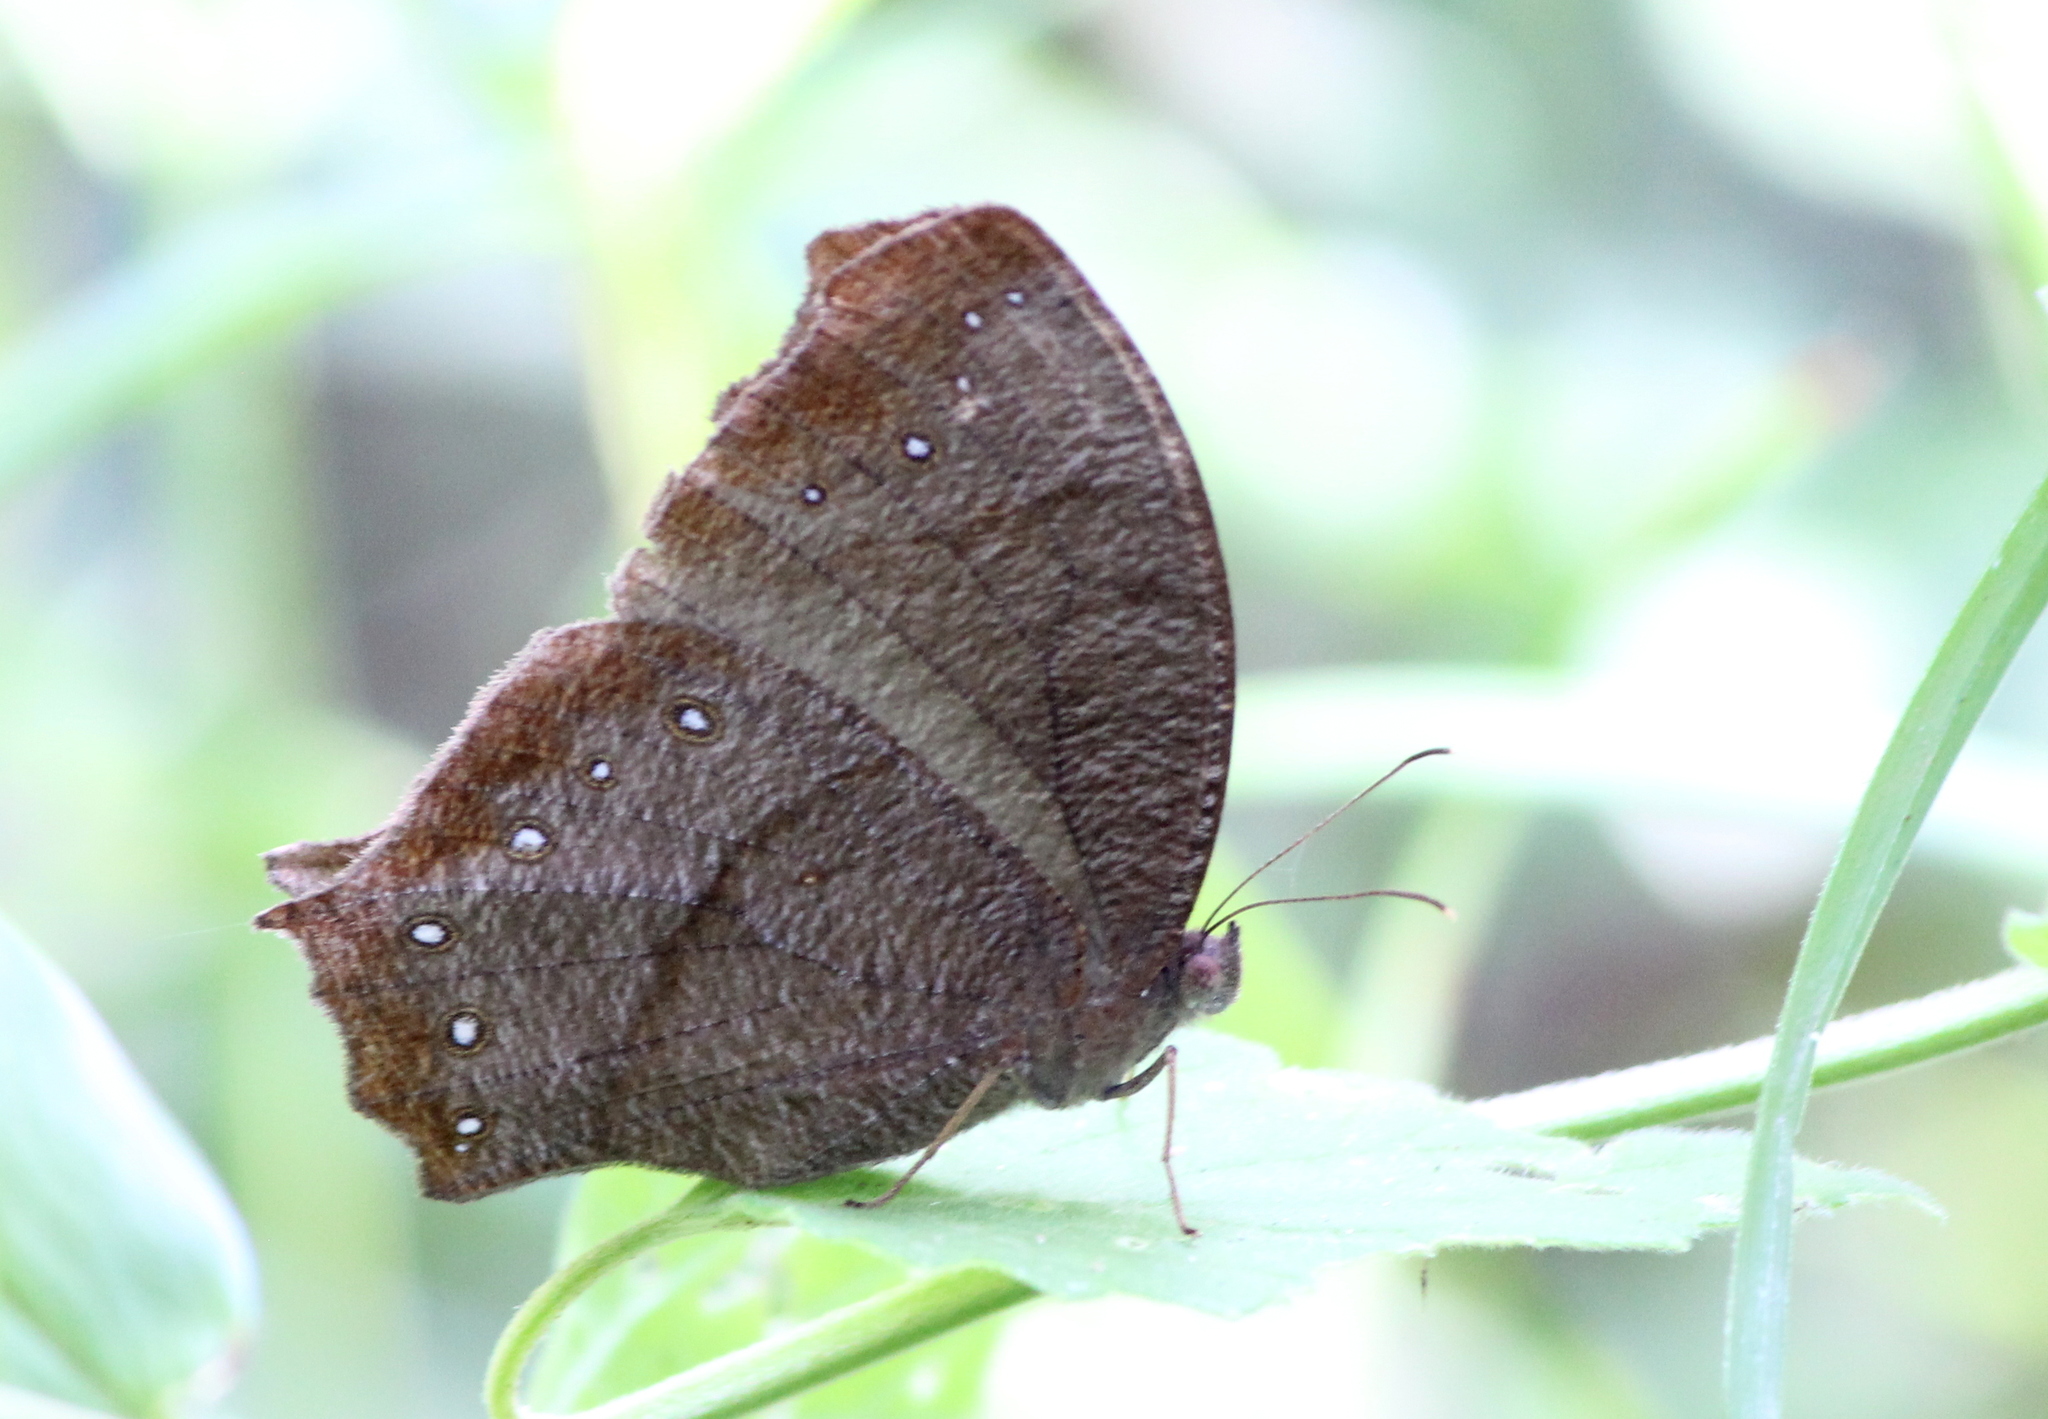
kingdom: Animalia
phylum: Arthropoda
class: Insecta
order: Lepidoptera
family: Nymphalidae
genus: Melanitis
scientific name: Melanitis phedima
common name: Dark evening brown
